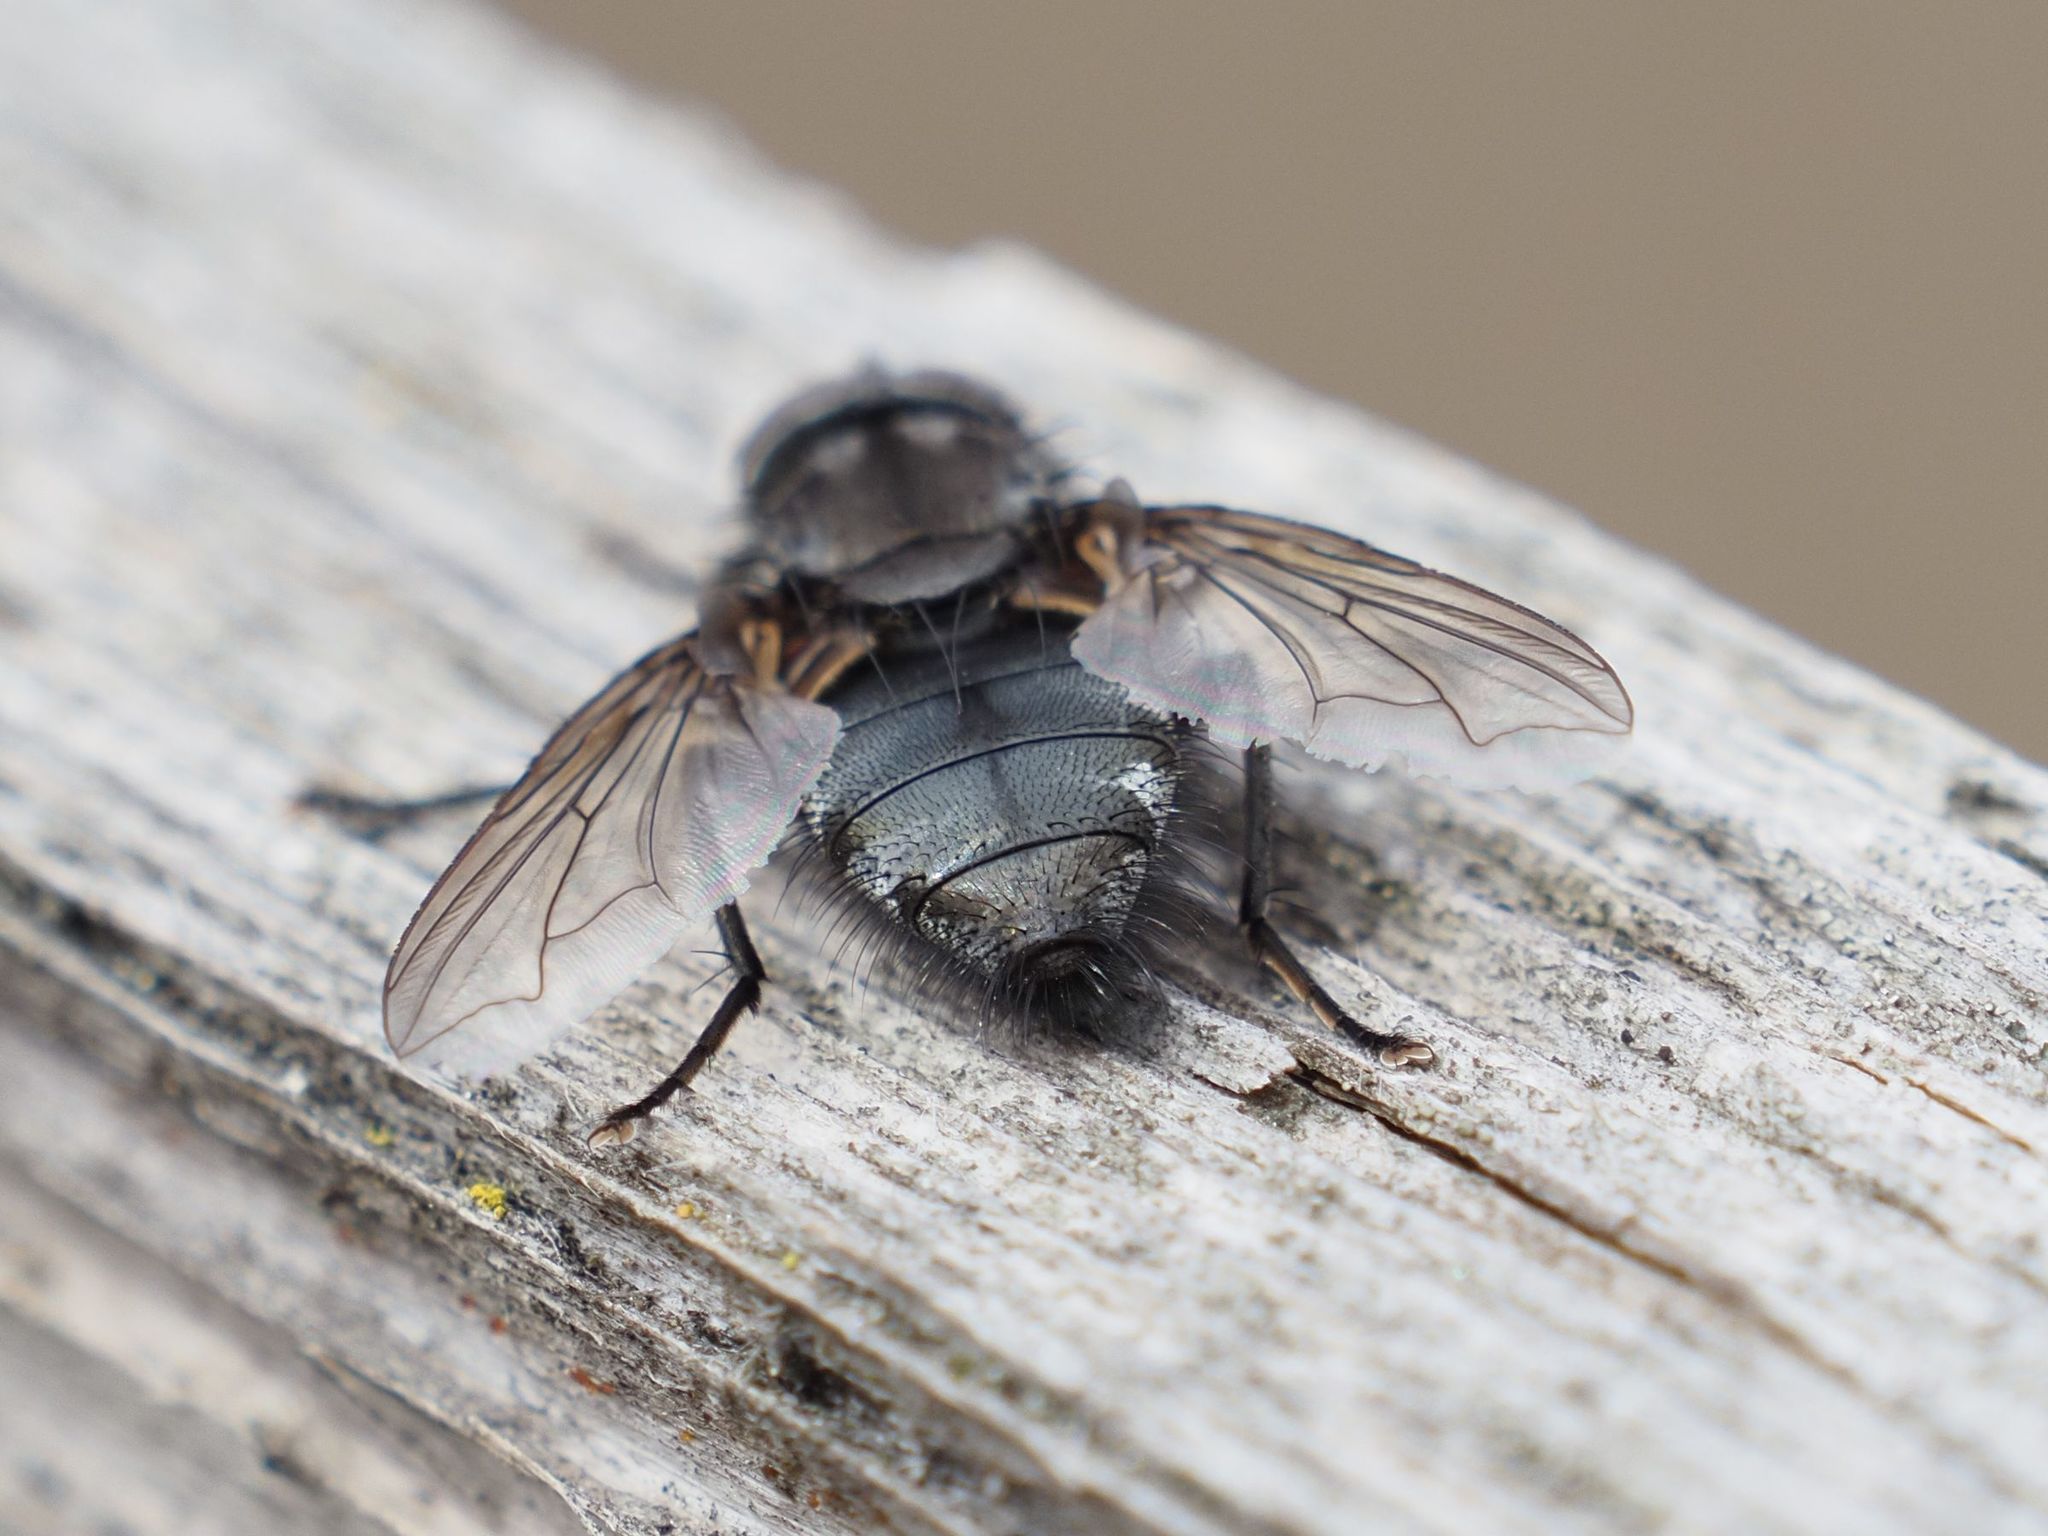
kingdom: Animalia
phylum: Arthropoda
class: Insecta
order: Diptera
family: Polleniidae
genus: Pollenia
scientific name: Pollenia vagabunda
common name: Vagabund cluster fly
